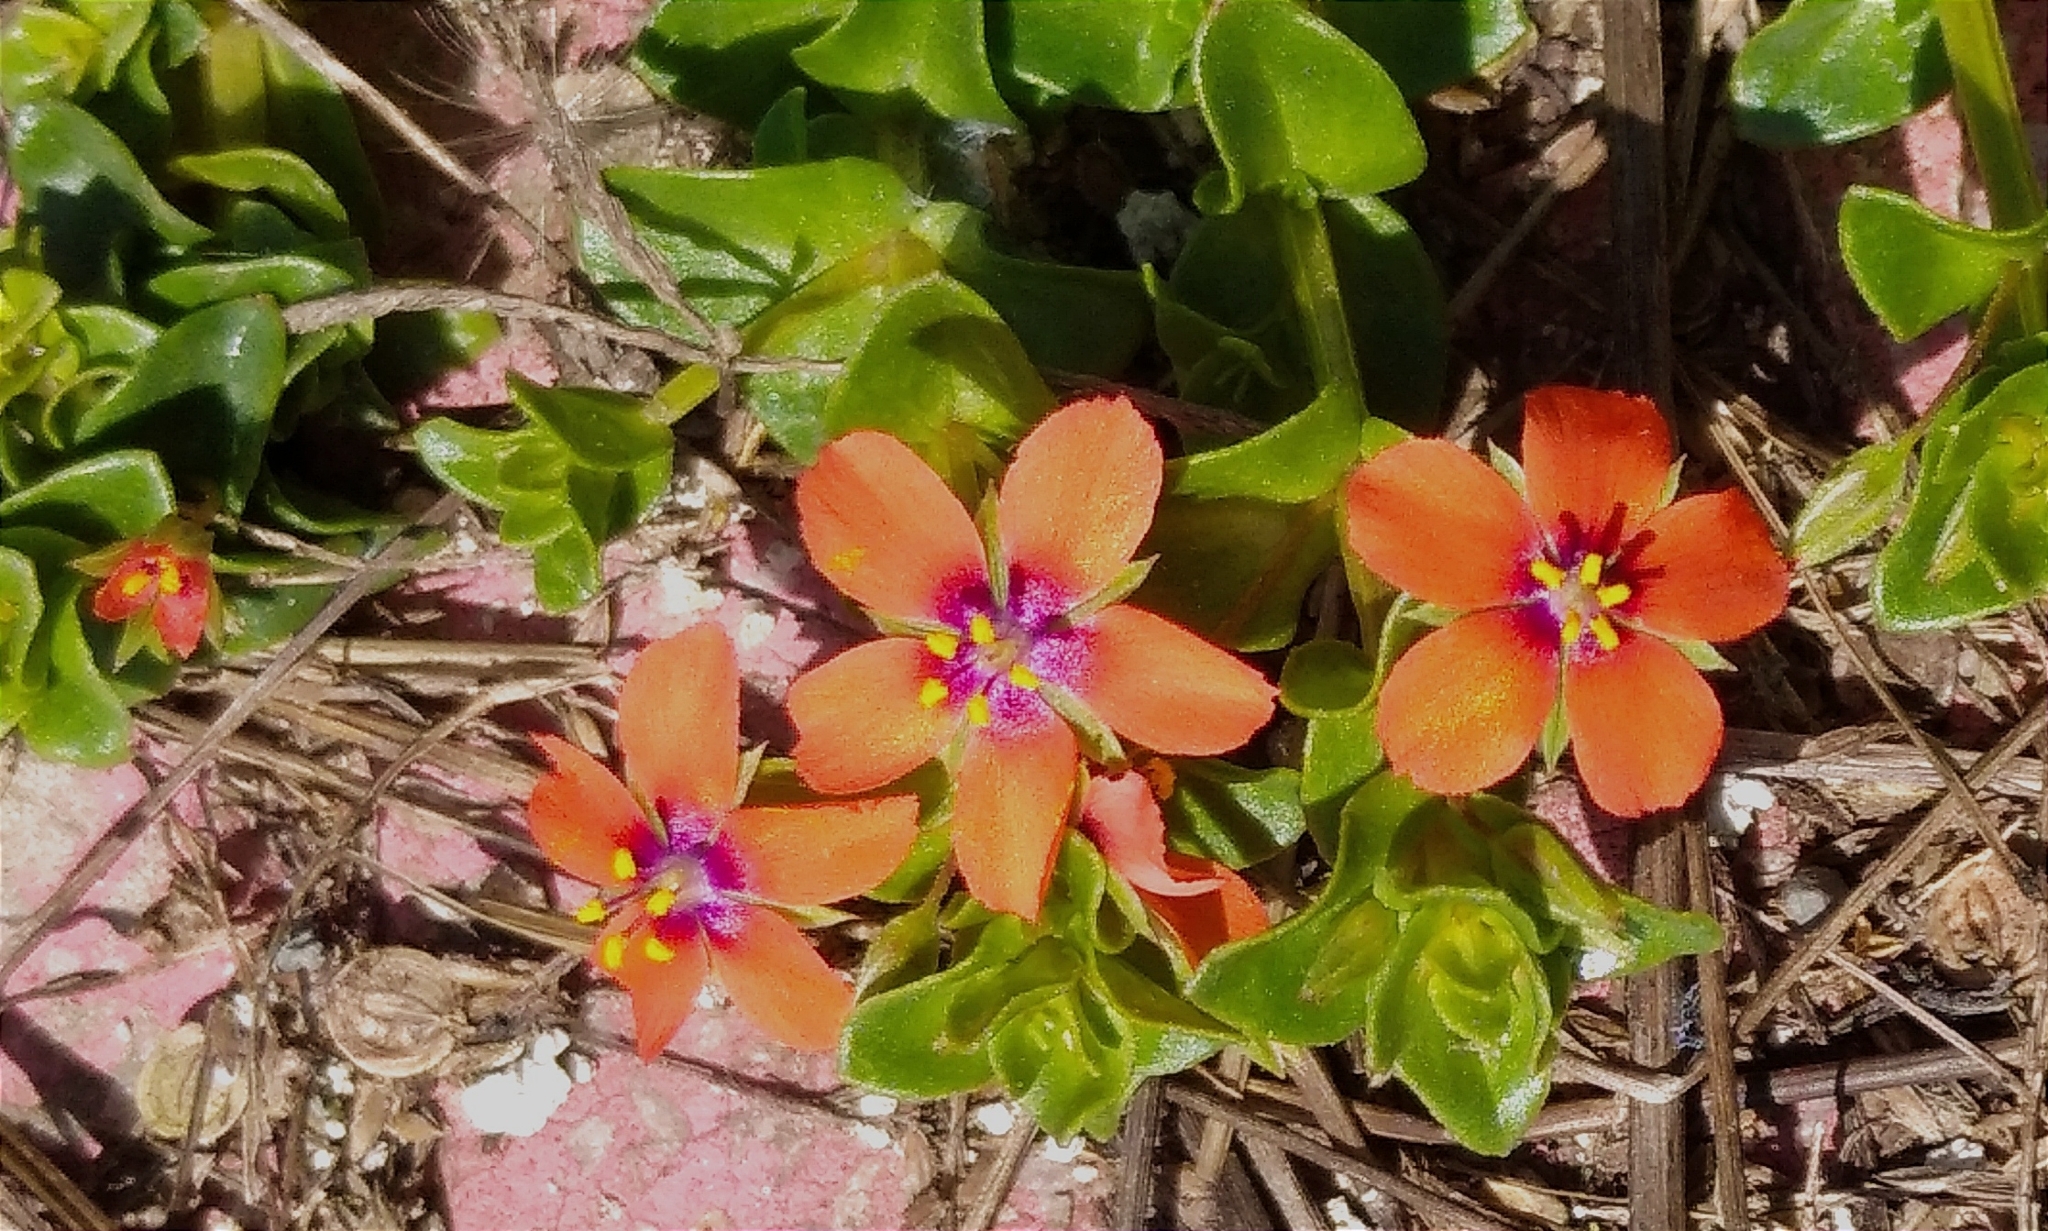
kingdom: Plantae
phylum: Tracheophyta
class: Magnoliopsida
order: Ericales
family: Primulaceae
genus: Lysimachia
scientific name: Lysimachia arvensis
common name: Scarlet pimpernel
